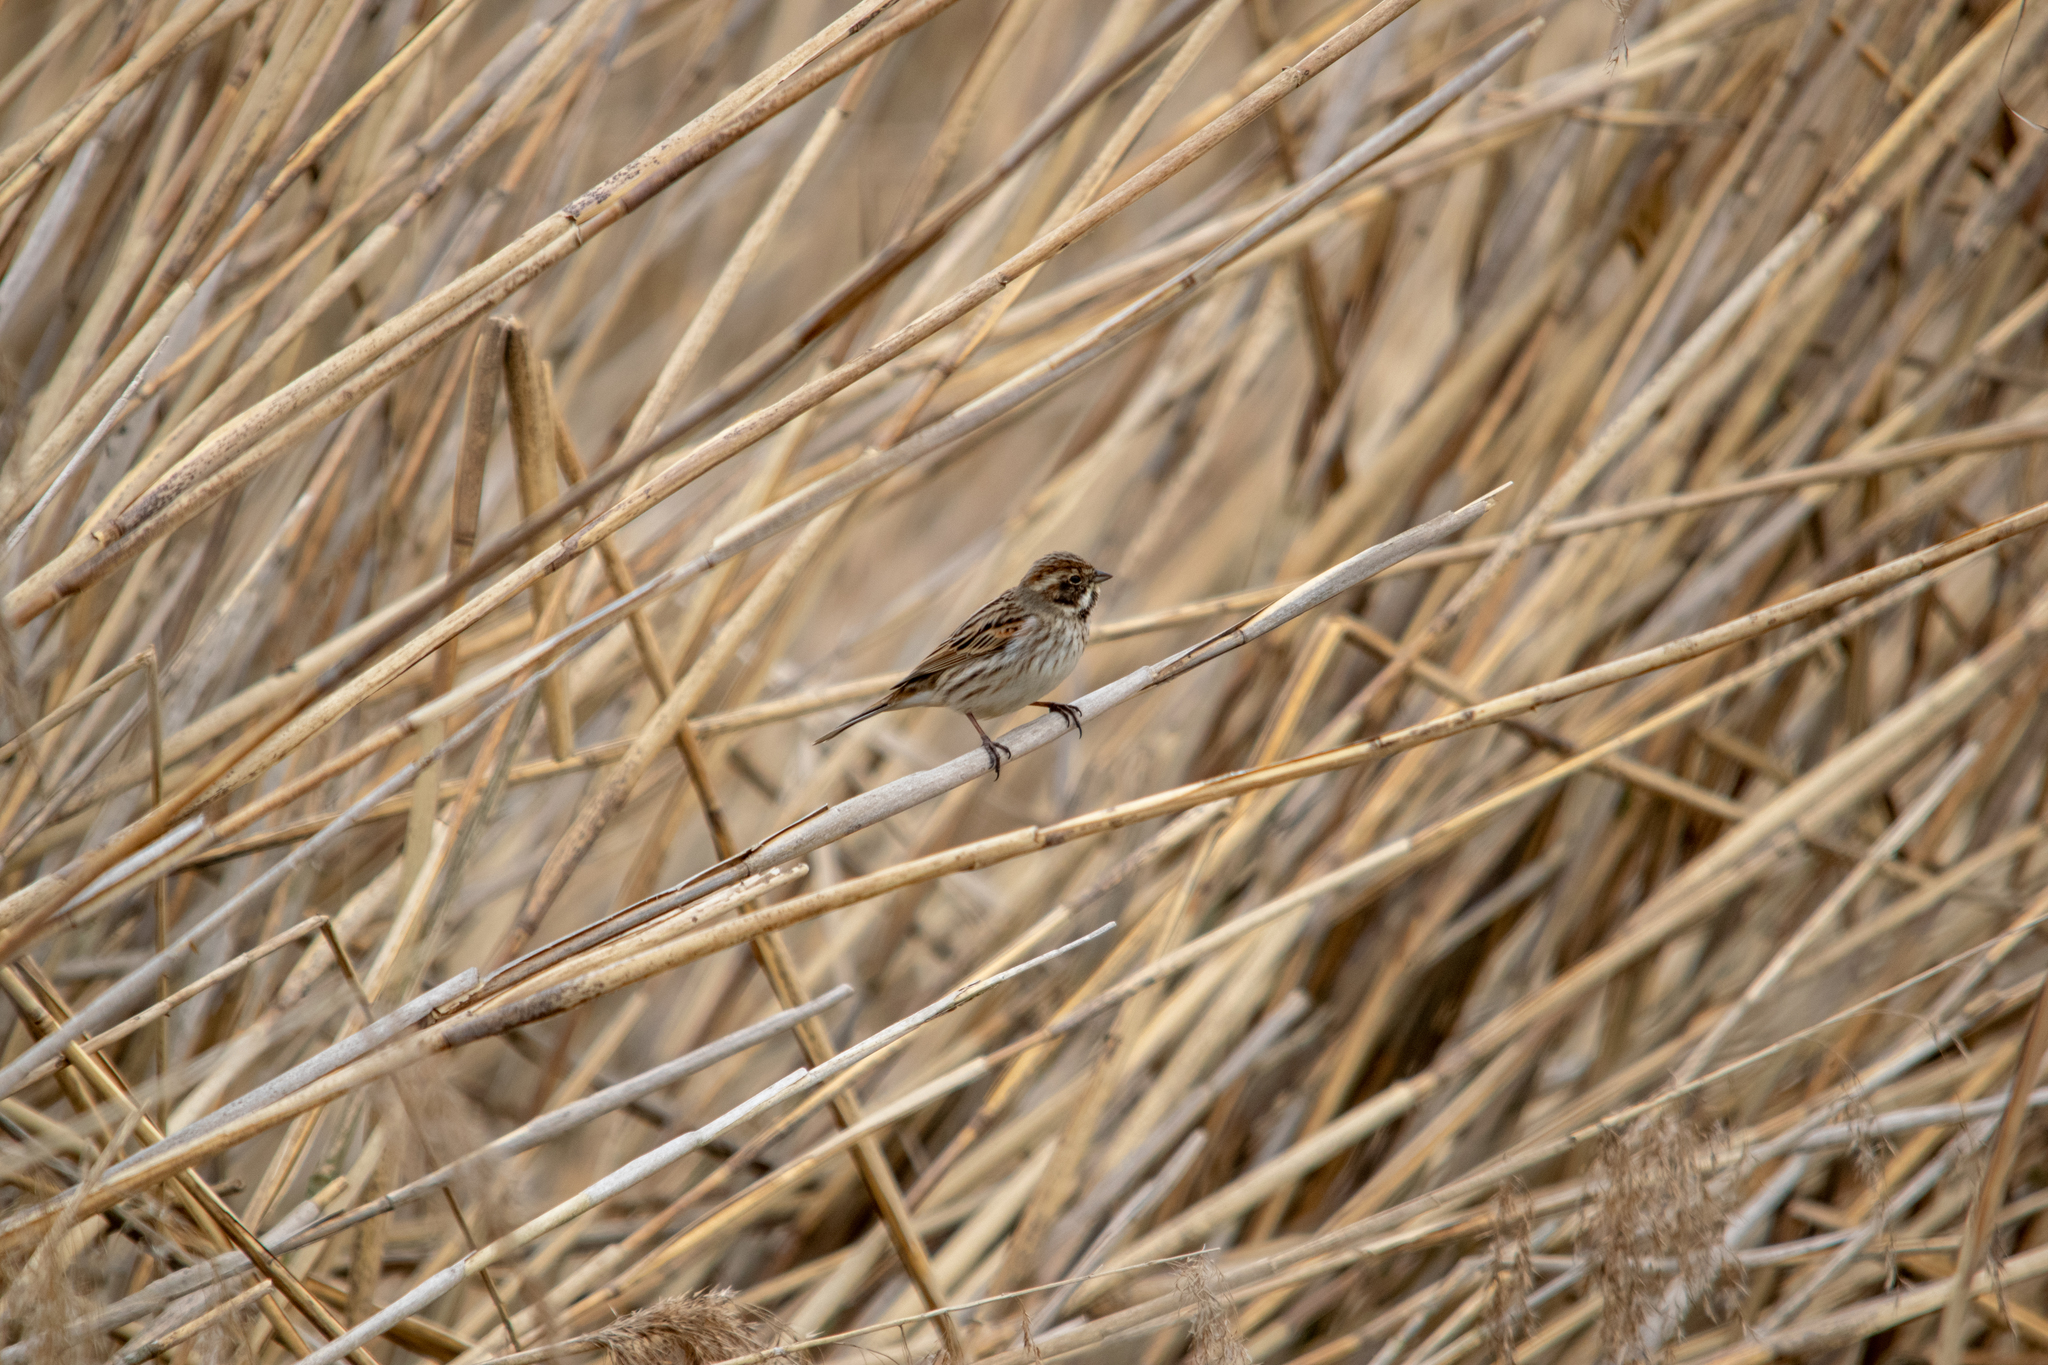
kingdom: Animalia
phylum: Chordata
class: Aves
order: Passeriformes
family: Emberizidae
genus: Emberiza
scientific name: Emberiza schoeniclus
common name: Reed bunting
